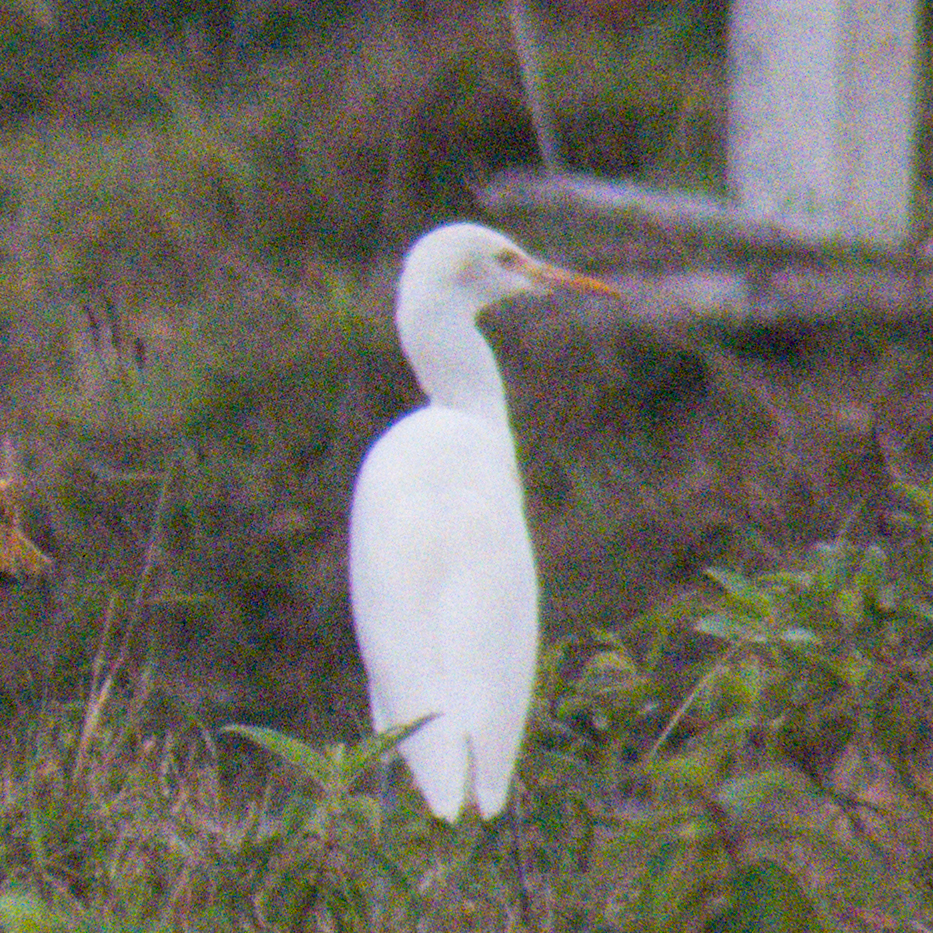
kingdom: Animalia
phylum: Chordata
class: Aves
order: Pelecaniformes
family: Ardeidae
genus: Bubulcus
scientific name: Bubulcus coromandus
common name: Eastern cattle egret
